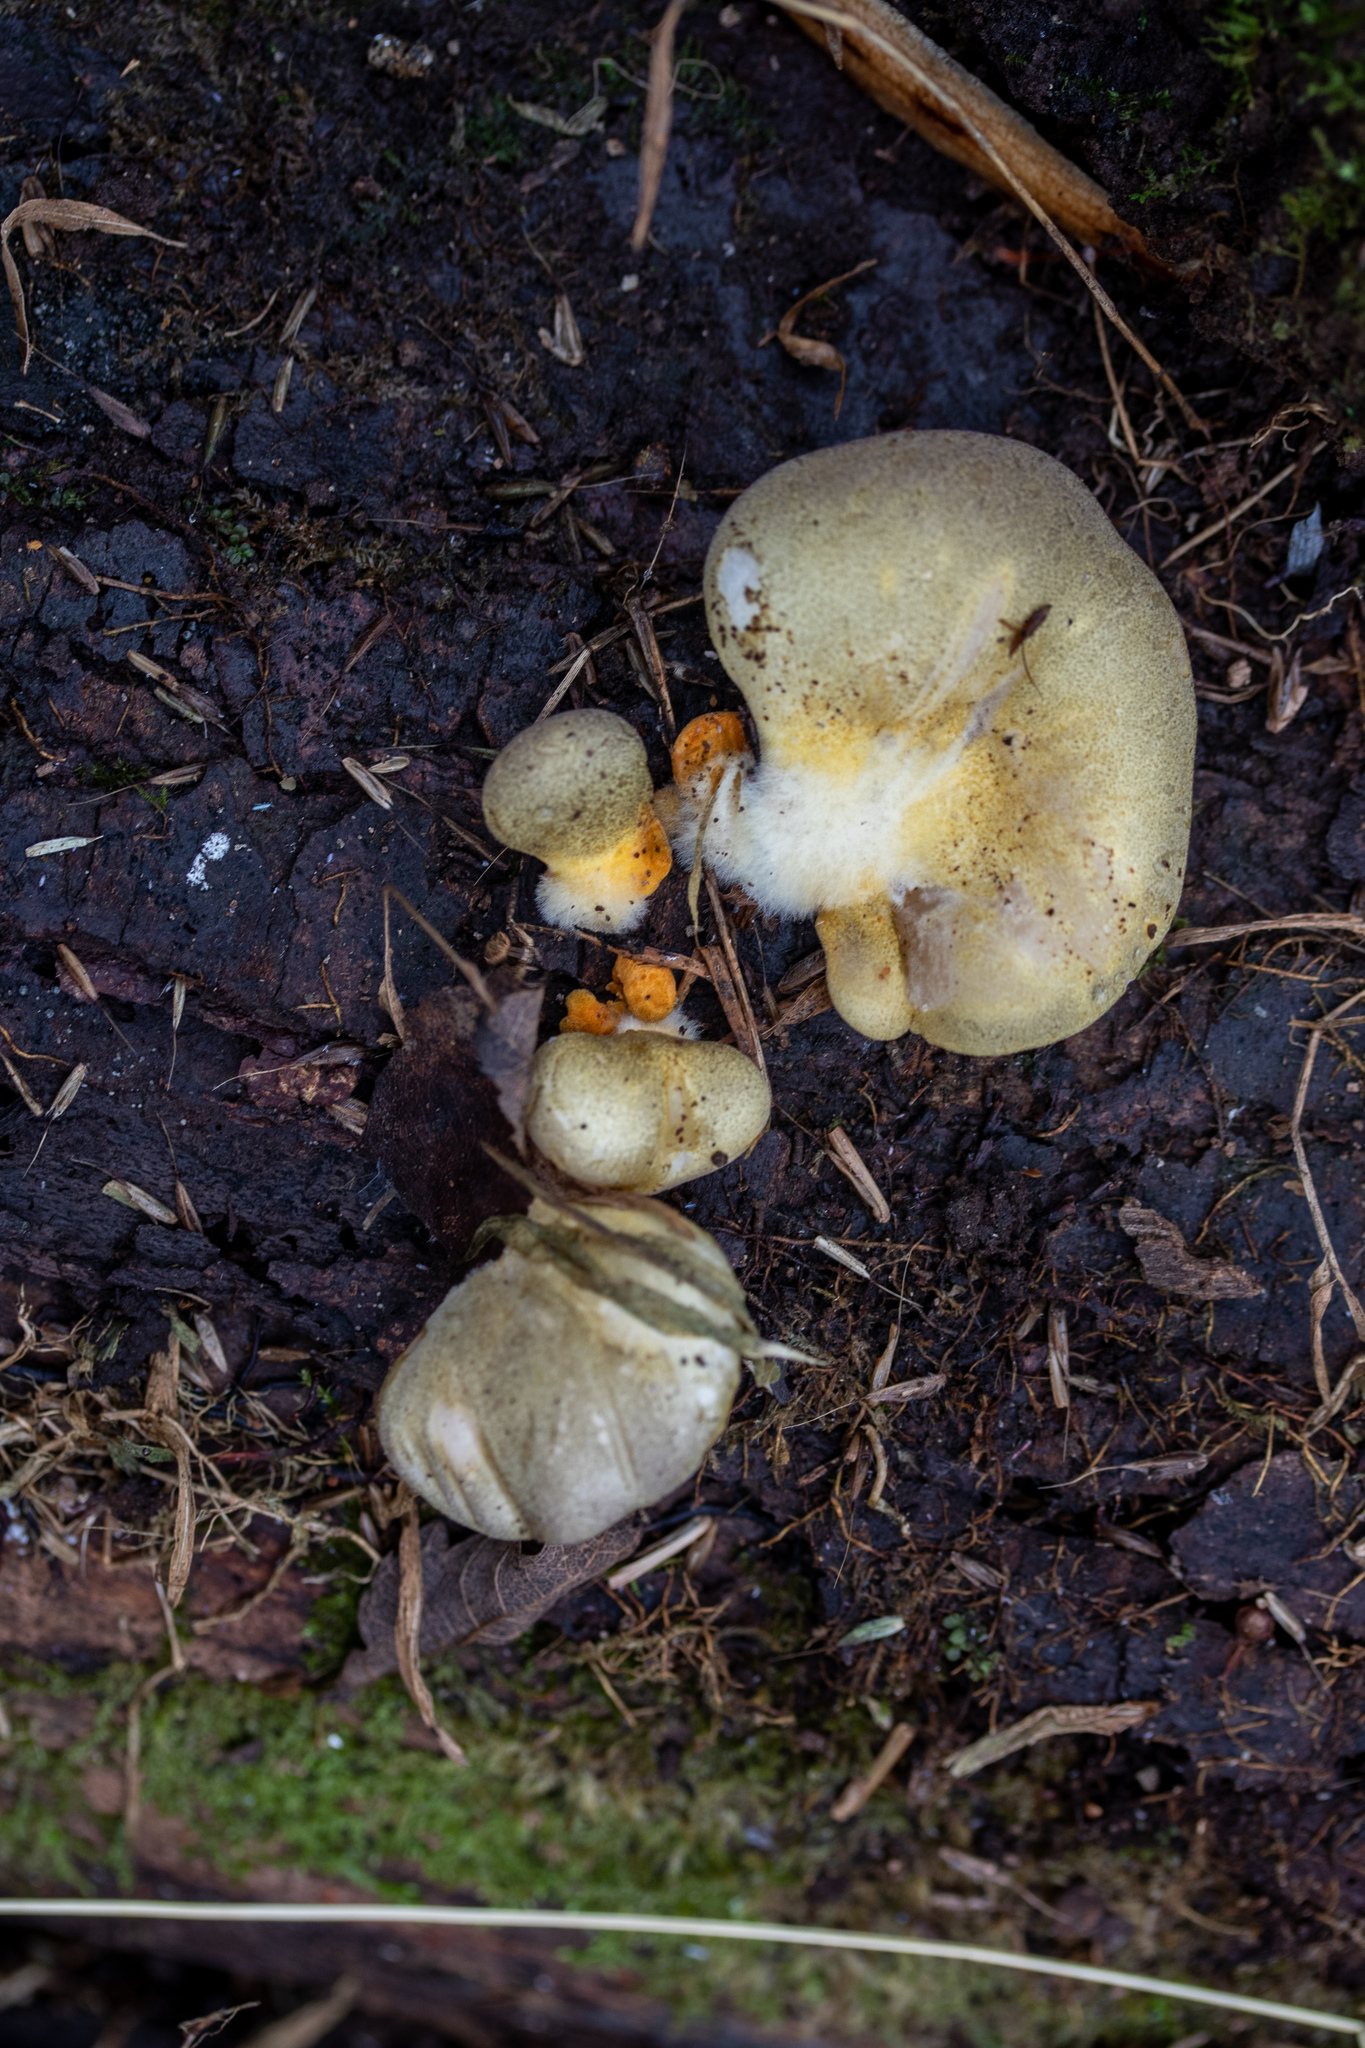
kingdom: Fungi
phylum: Basidiomycota
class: Agaricomycetes
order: Agaricales
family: Sarcomyxaceae
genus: Sarcomyxa
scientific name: Sarcomyxa serotina
